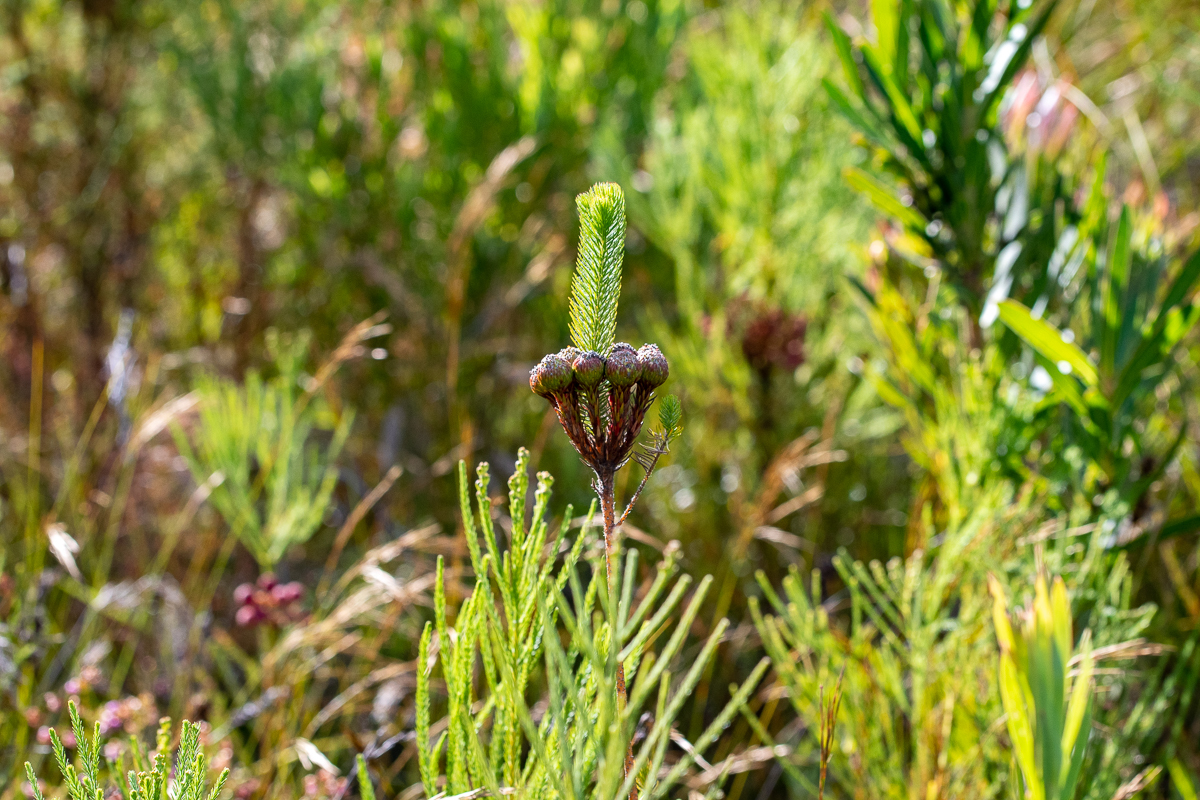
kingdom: Plantae
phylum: Tracheophyta
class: Magnoliopsida
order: Bruniales
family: Bruniaceae
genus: Berzelia
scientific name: Berzelia albiflora
